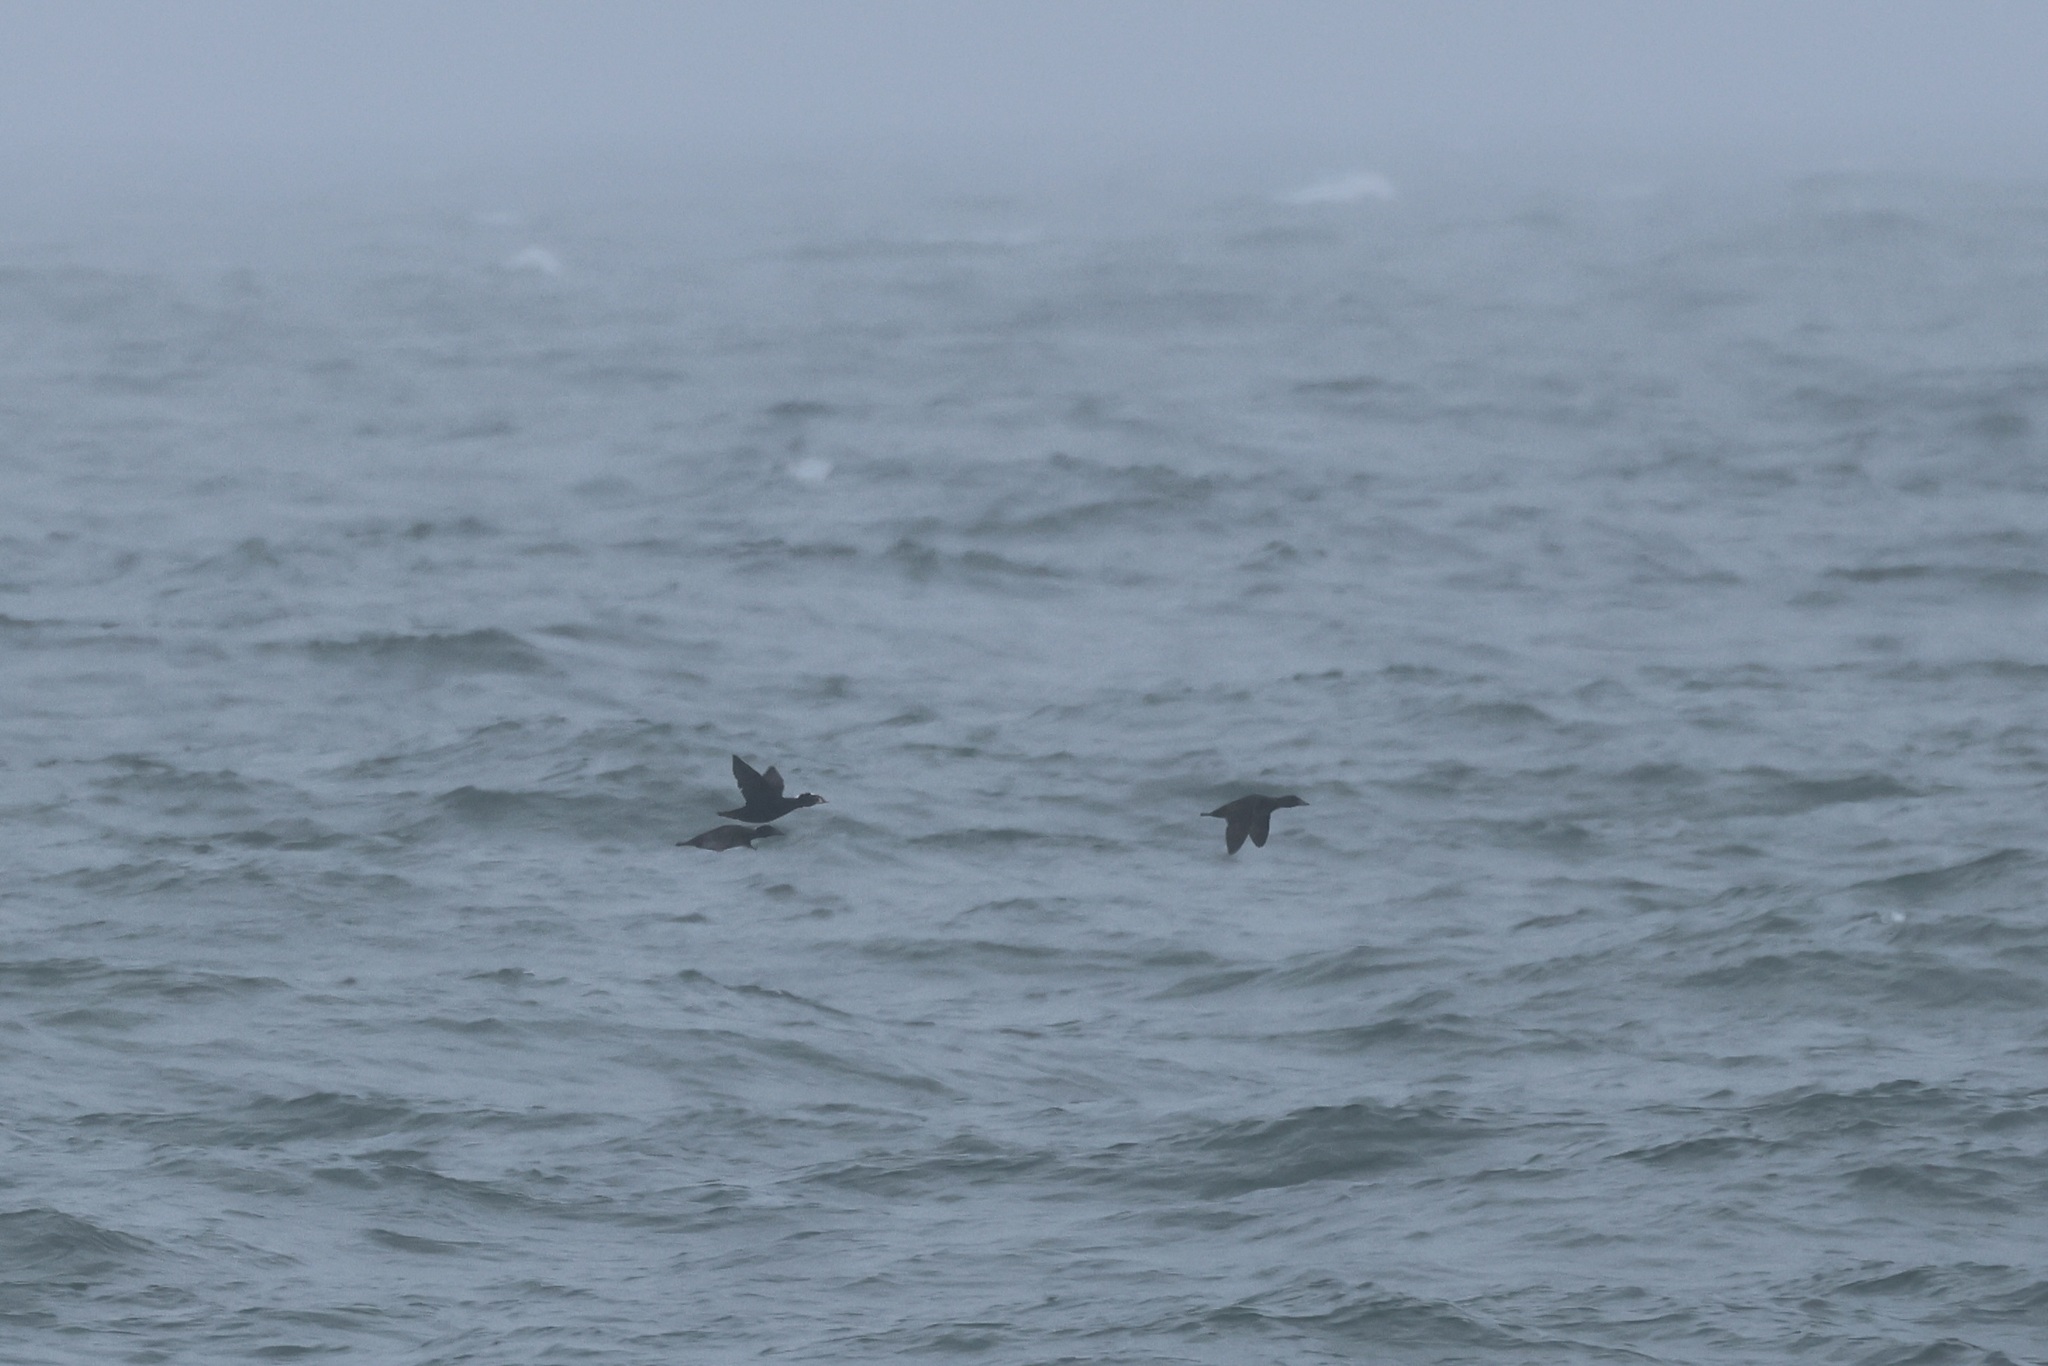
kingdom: Animalia
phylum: Chordata
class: Aves
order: Anseriformes
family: Anatidae
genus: Melanitta
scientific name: Melanitta perspicillata
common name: Surf scoter
